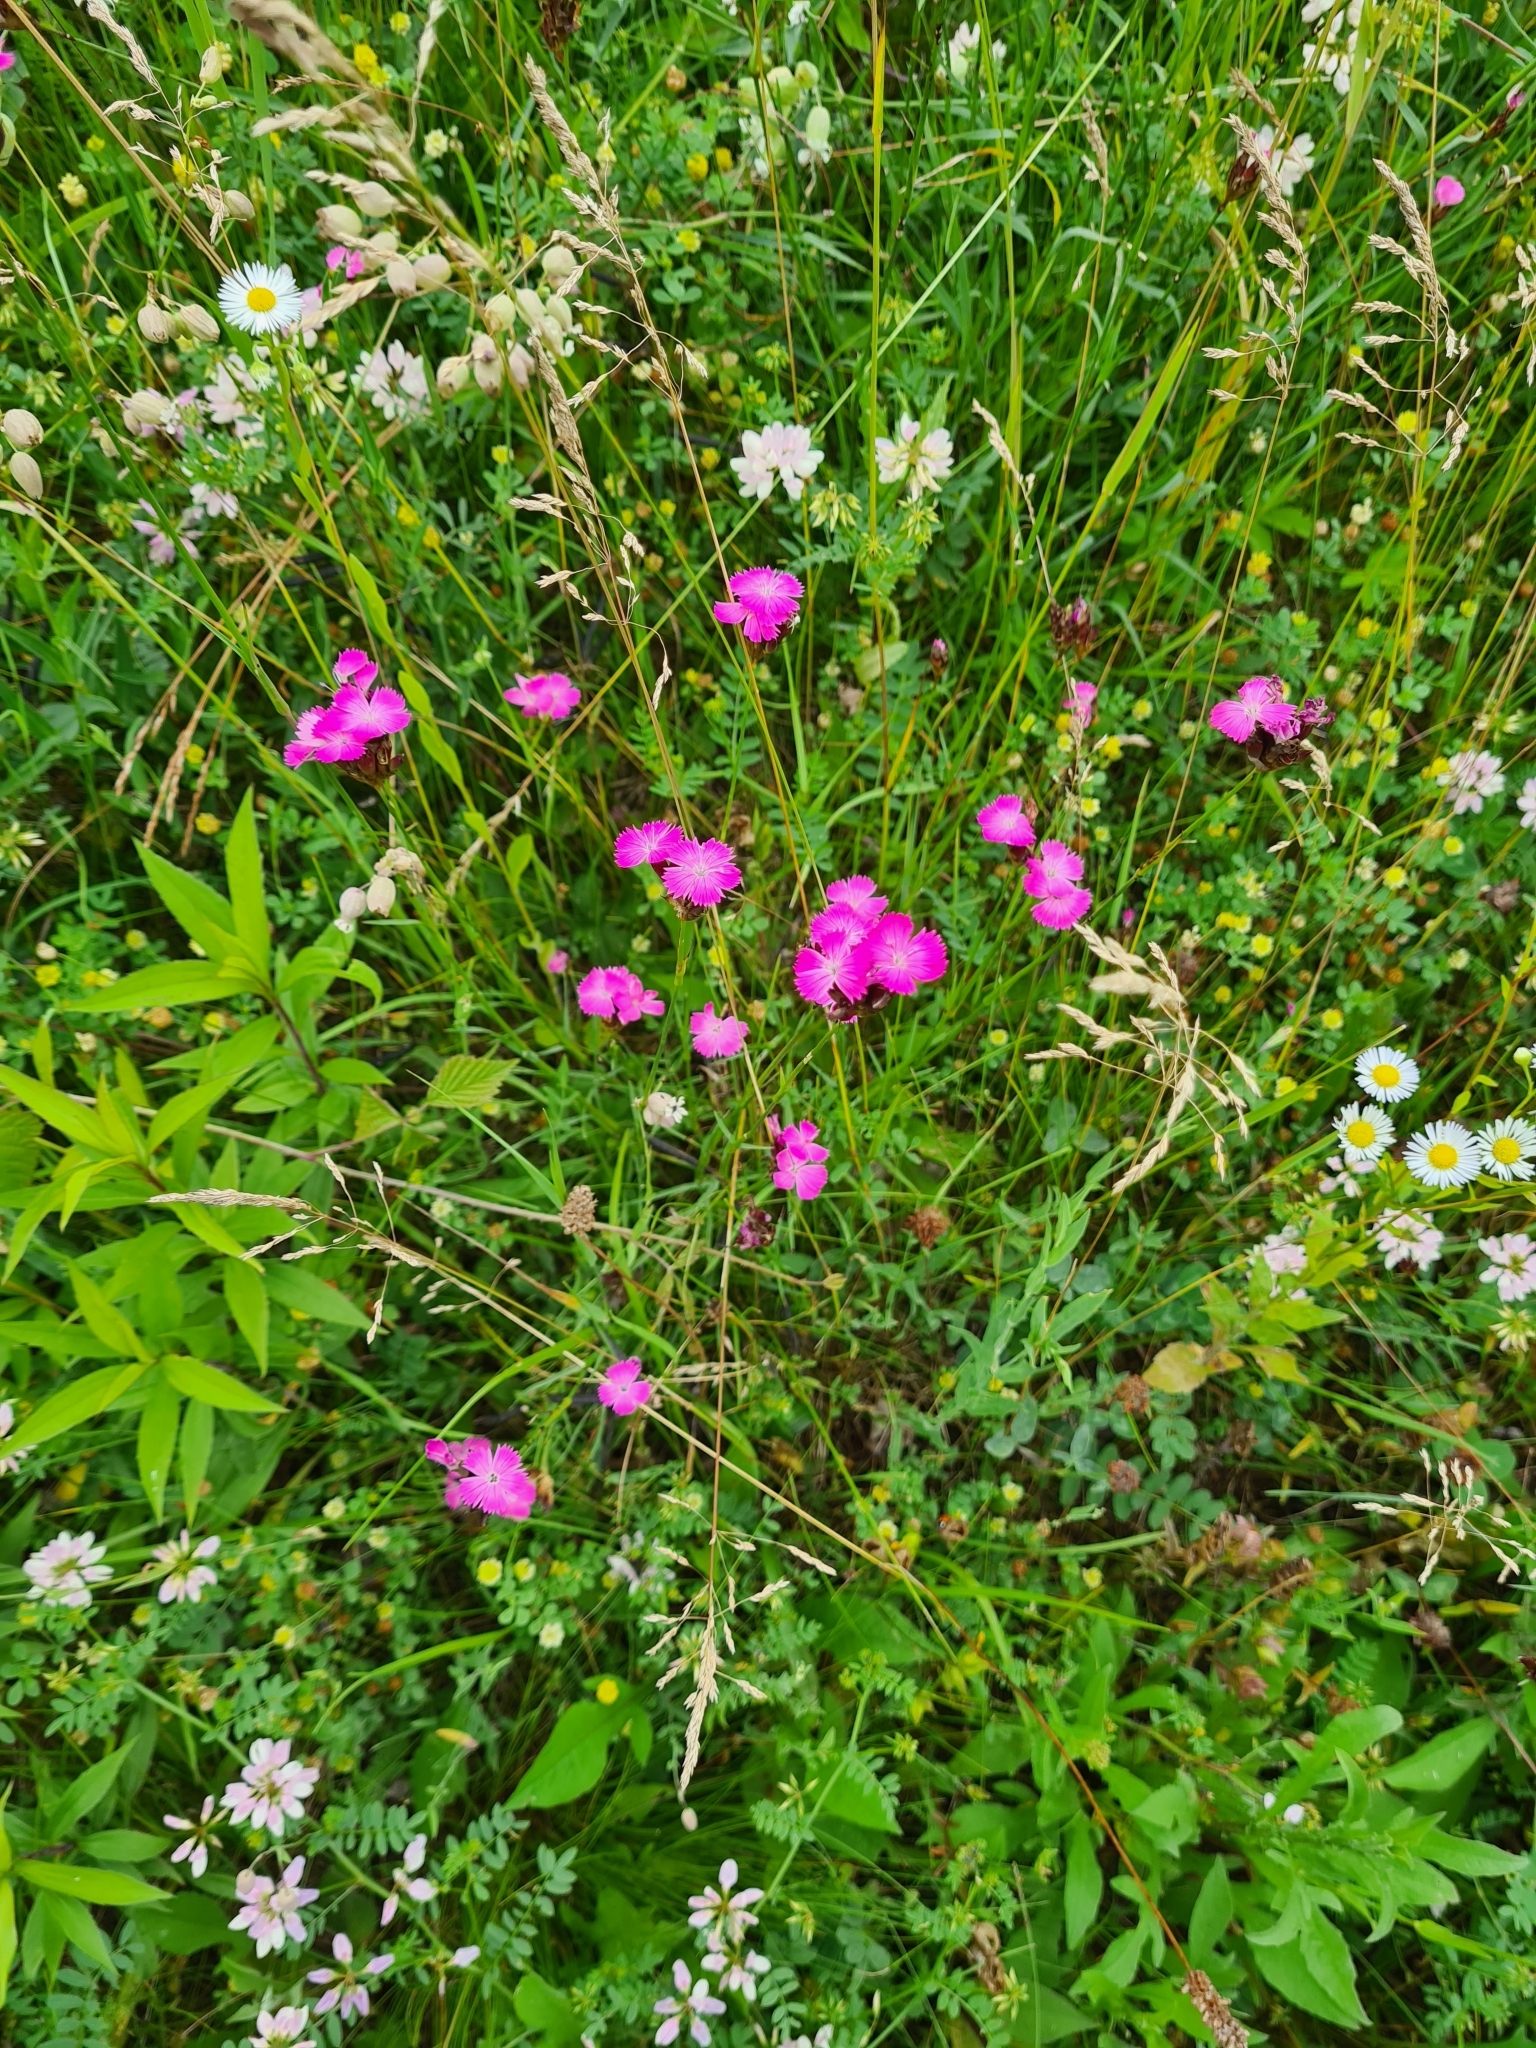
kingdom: Plantae
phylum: Tracheophyta
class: Magnoliopsida
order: Caryophyllales
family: Caryophyllaceae
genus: Dianthus
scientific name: Dianthus carthusianorum
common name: Carthusian pink
